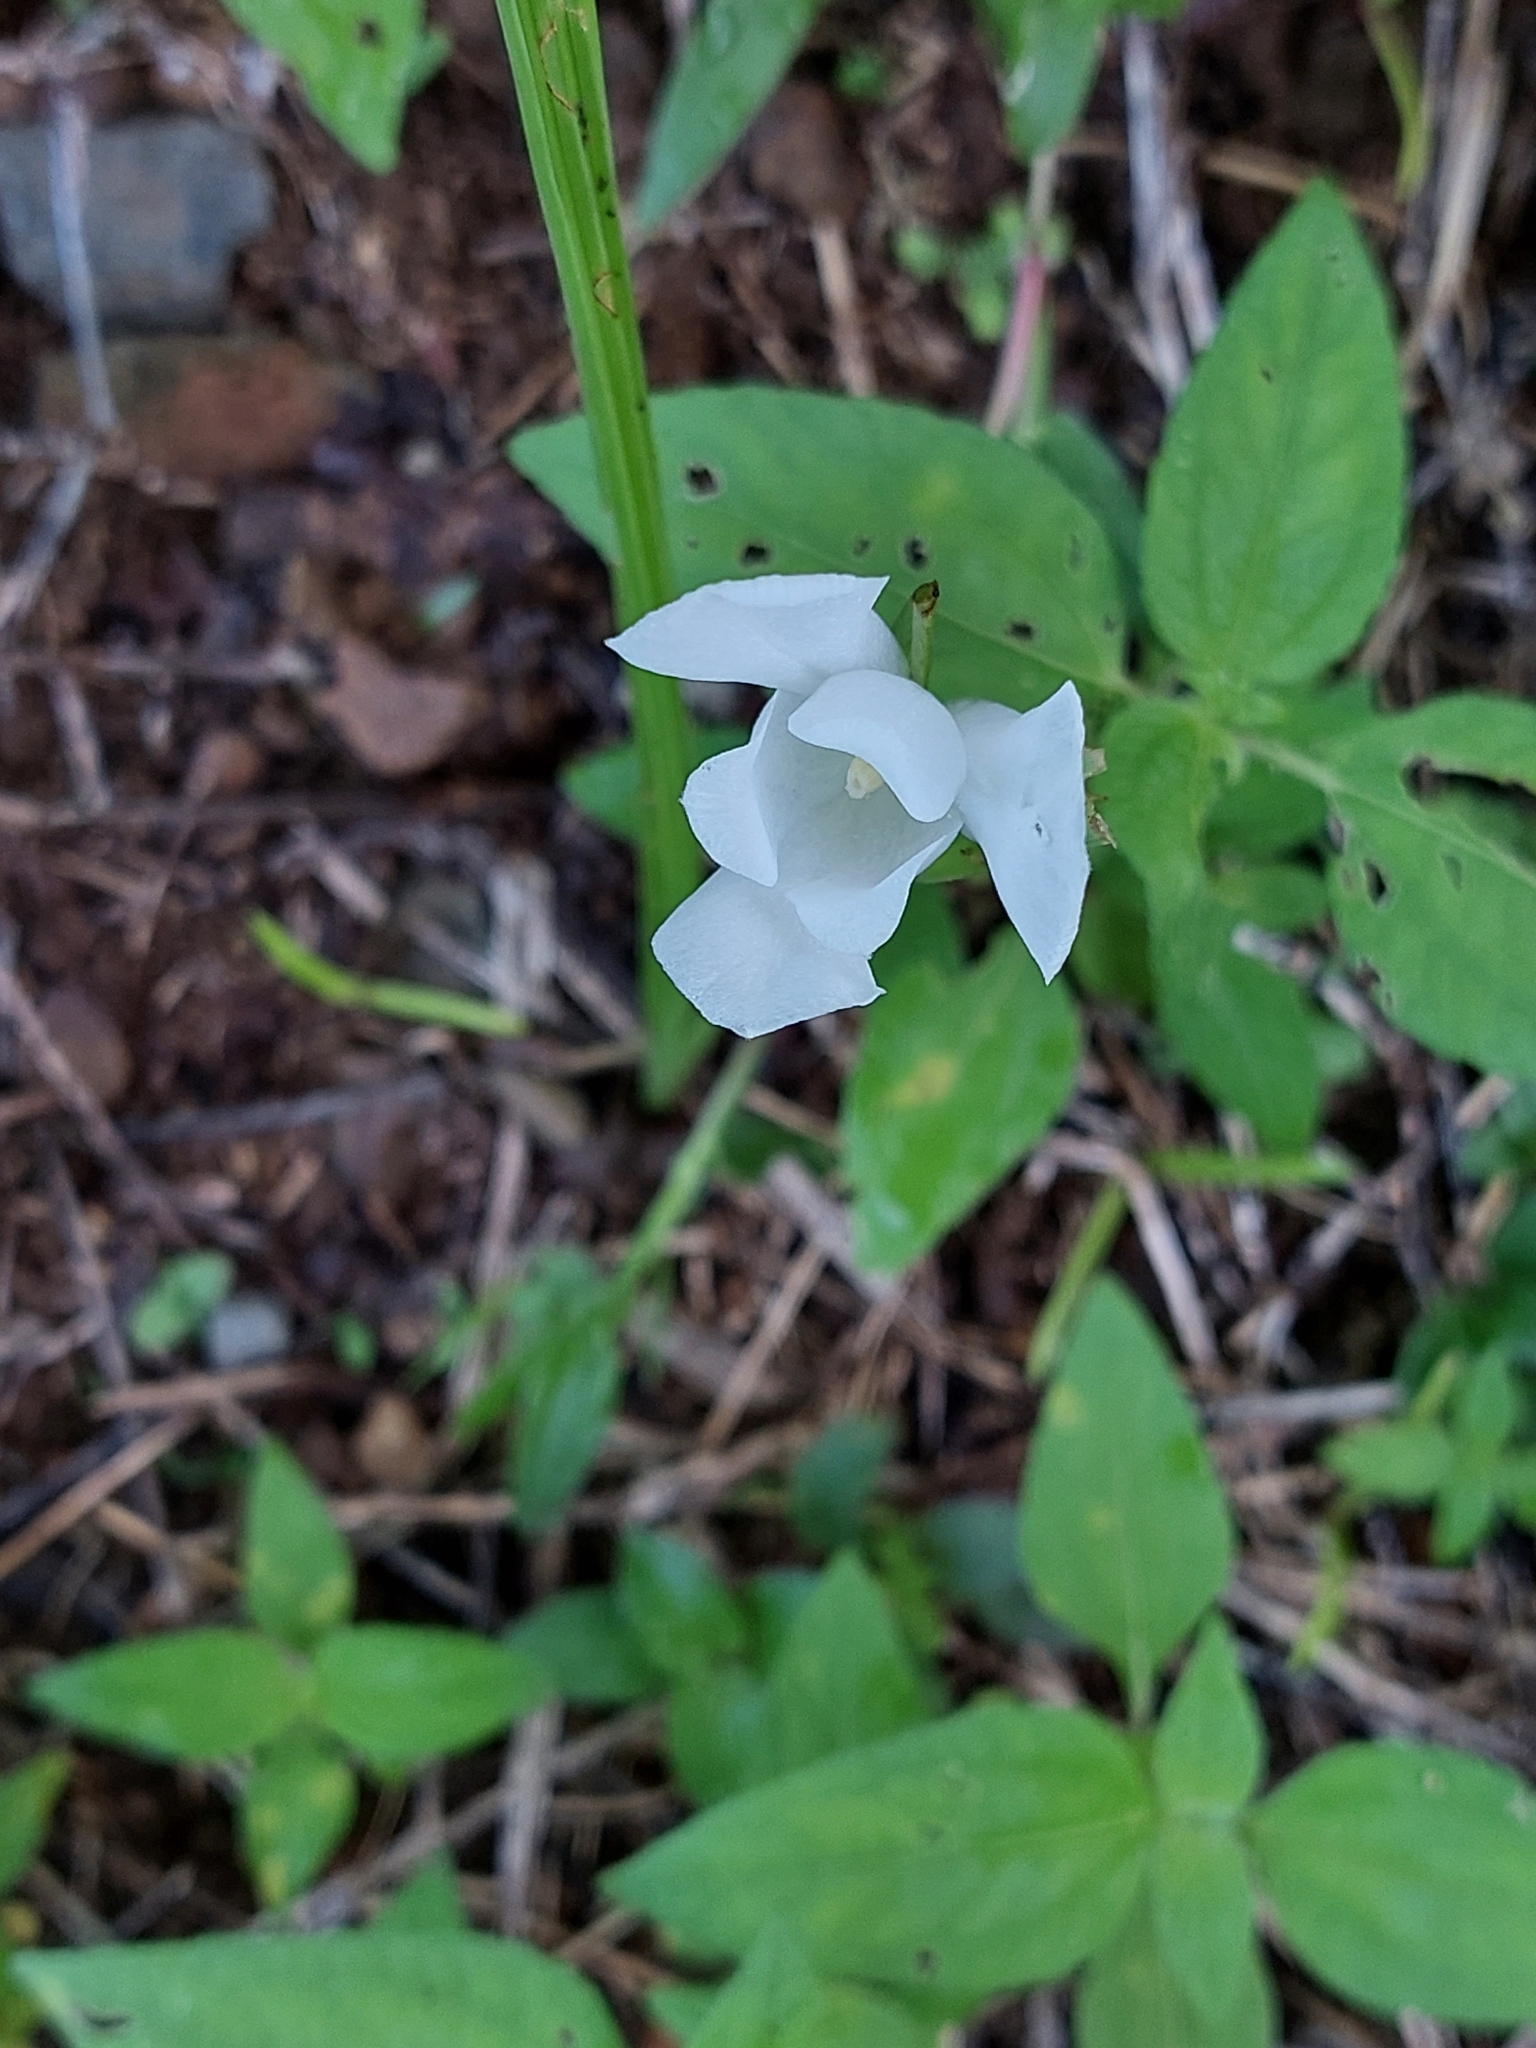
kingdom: Plantae
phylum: Tracheophyta
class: Liliopsida
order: Asparagales
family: Iridaceae
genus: Cipura
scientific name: Cipura campanulata
